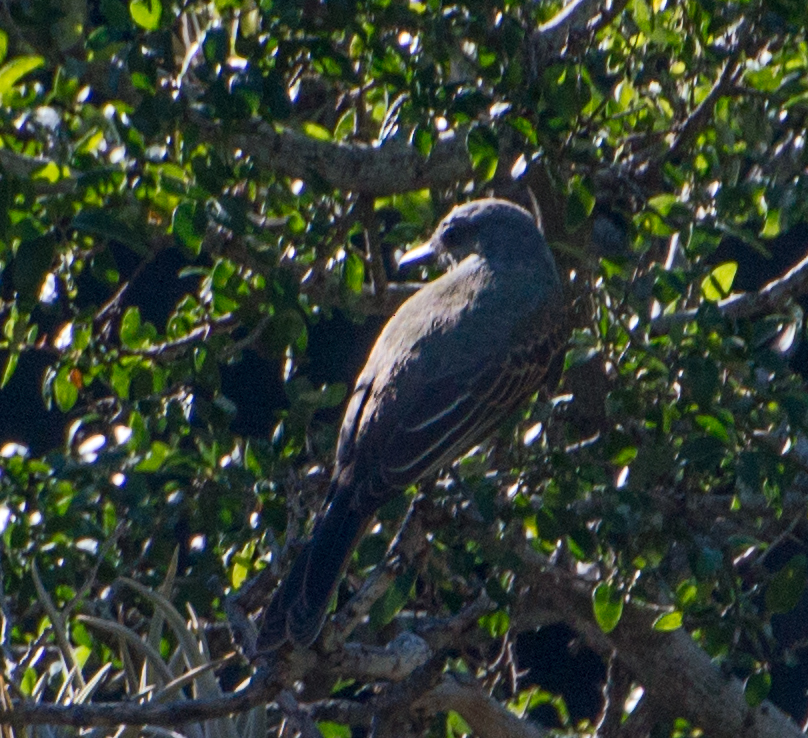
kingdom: Animalia
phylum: Chordata
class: Aves
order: Passeriformes
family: Tyrannidae
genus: Tyrannus
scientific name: Tyrannus melancholicus
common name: Tropical kingbird
